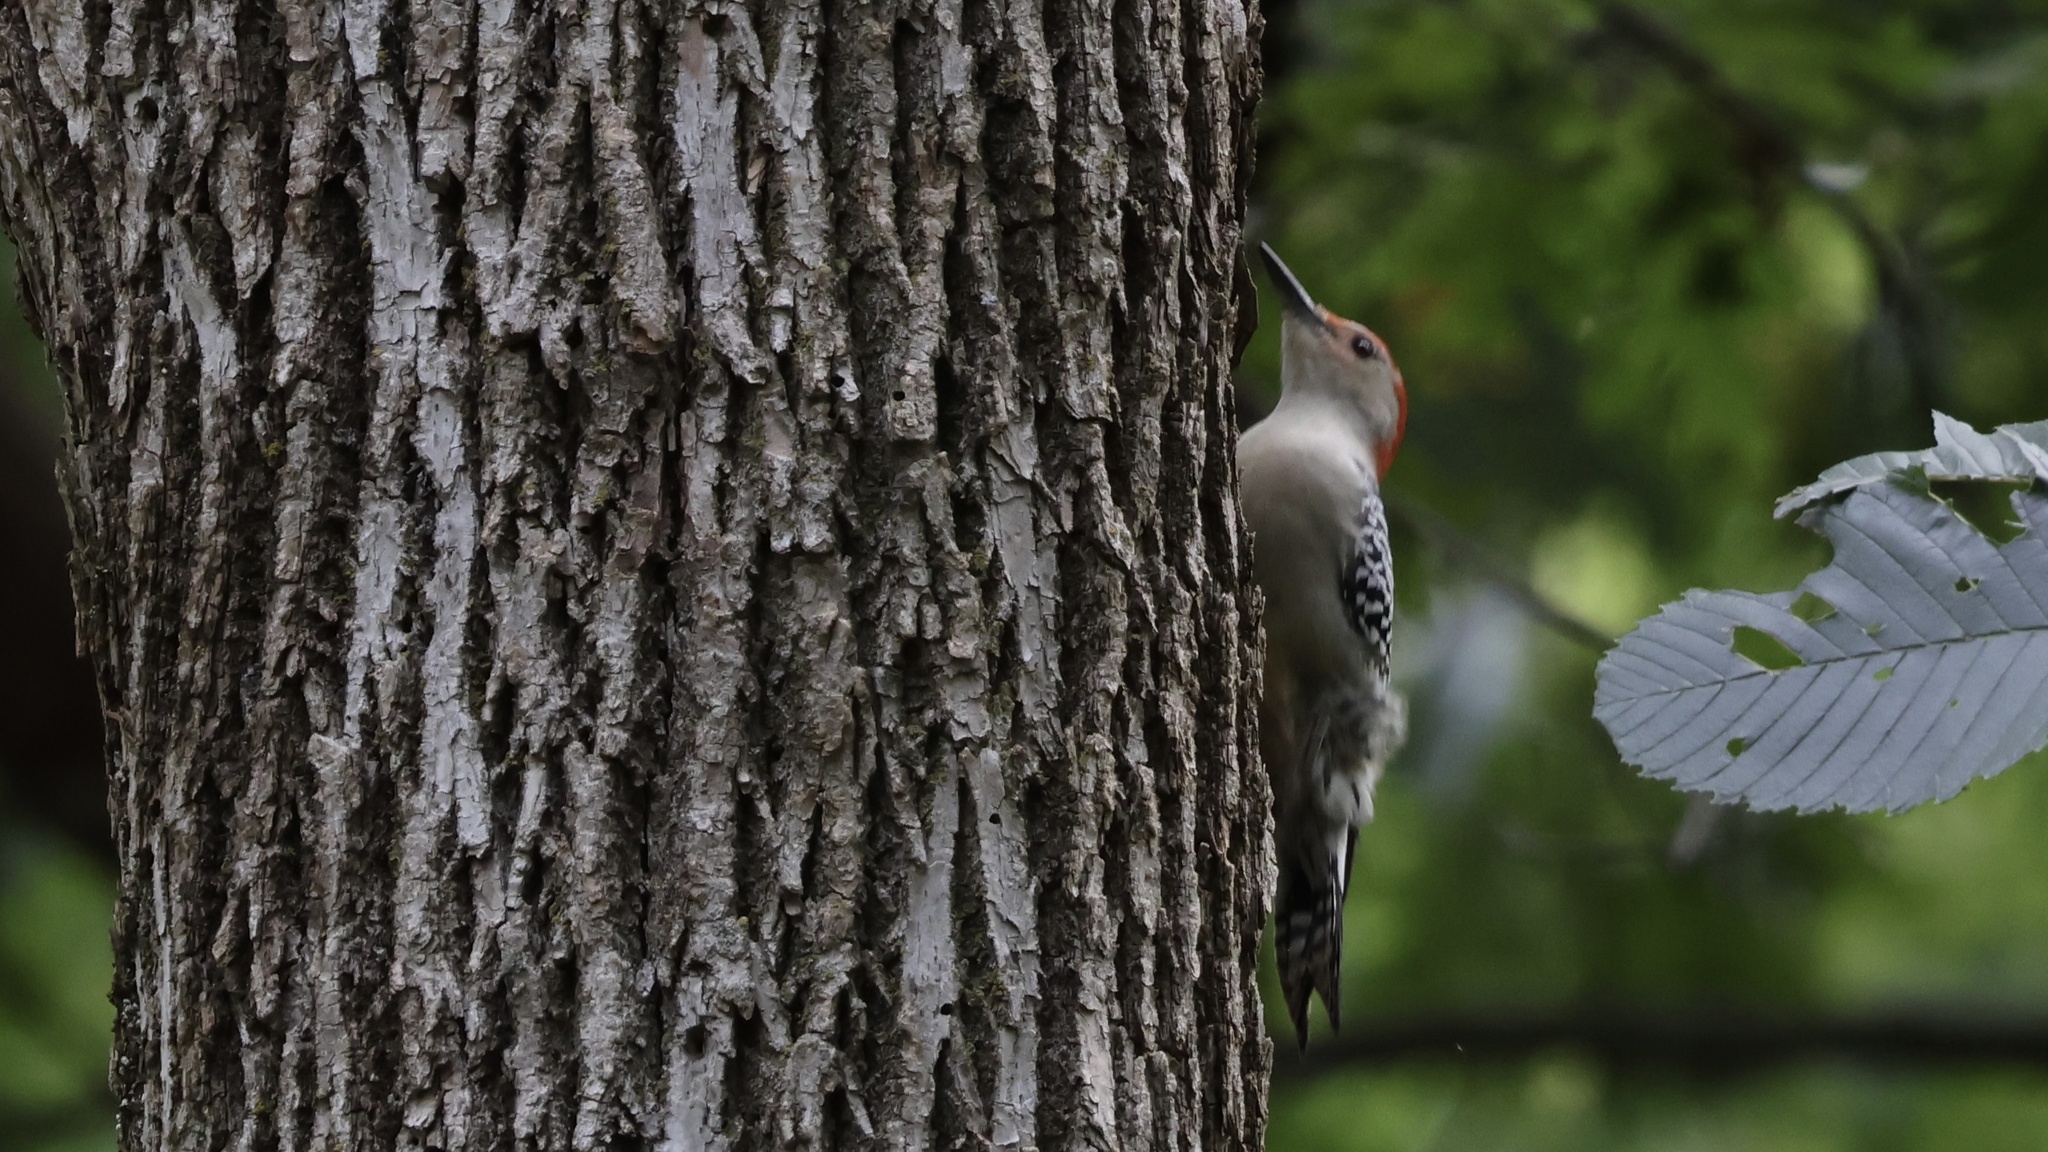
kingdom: Animalia
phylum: Chordata
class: Aves
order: Piciformes
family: Picidae
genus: Melanerpes
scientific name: Melanerpes carolinus
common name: Red-bellied woodpecker
